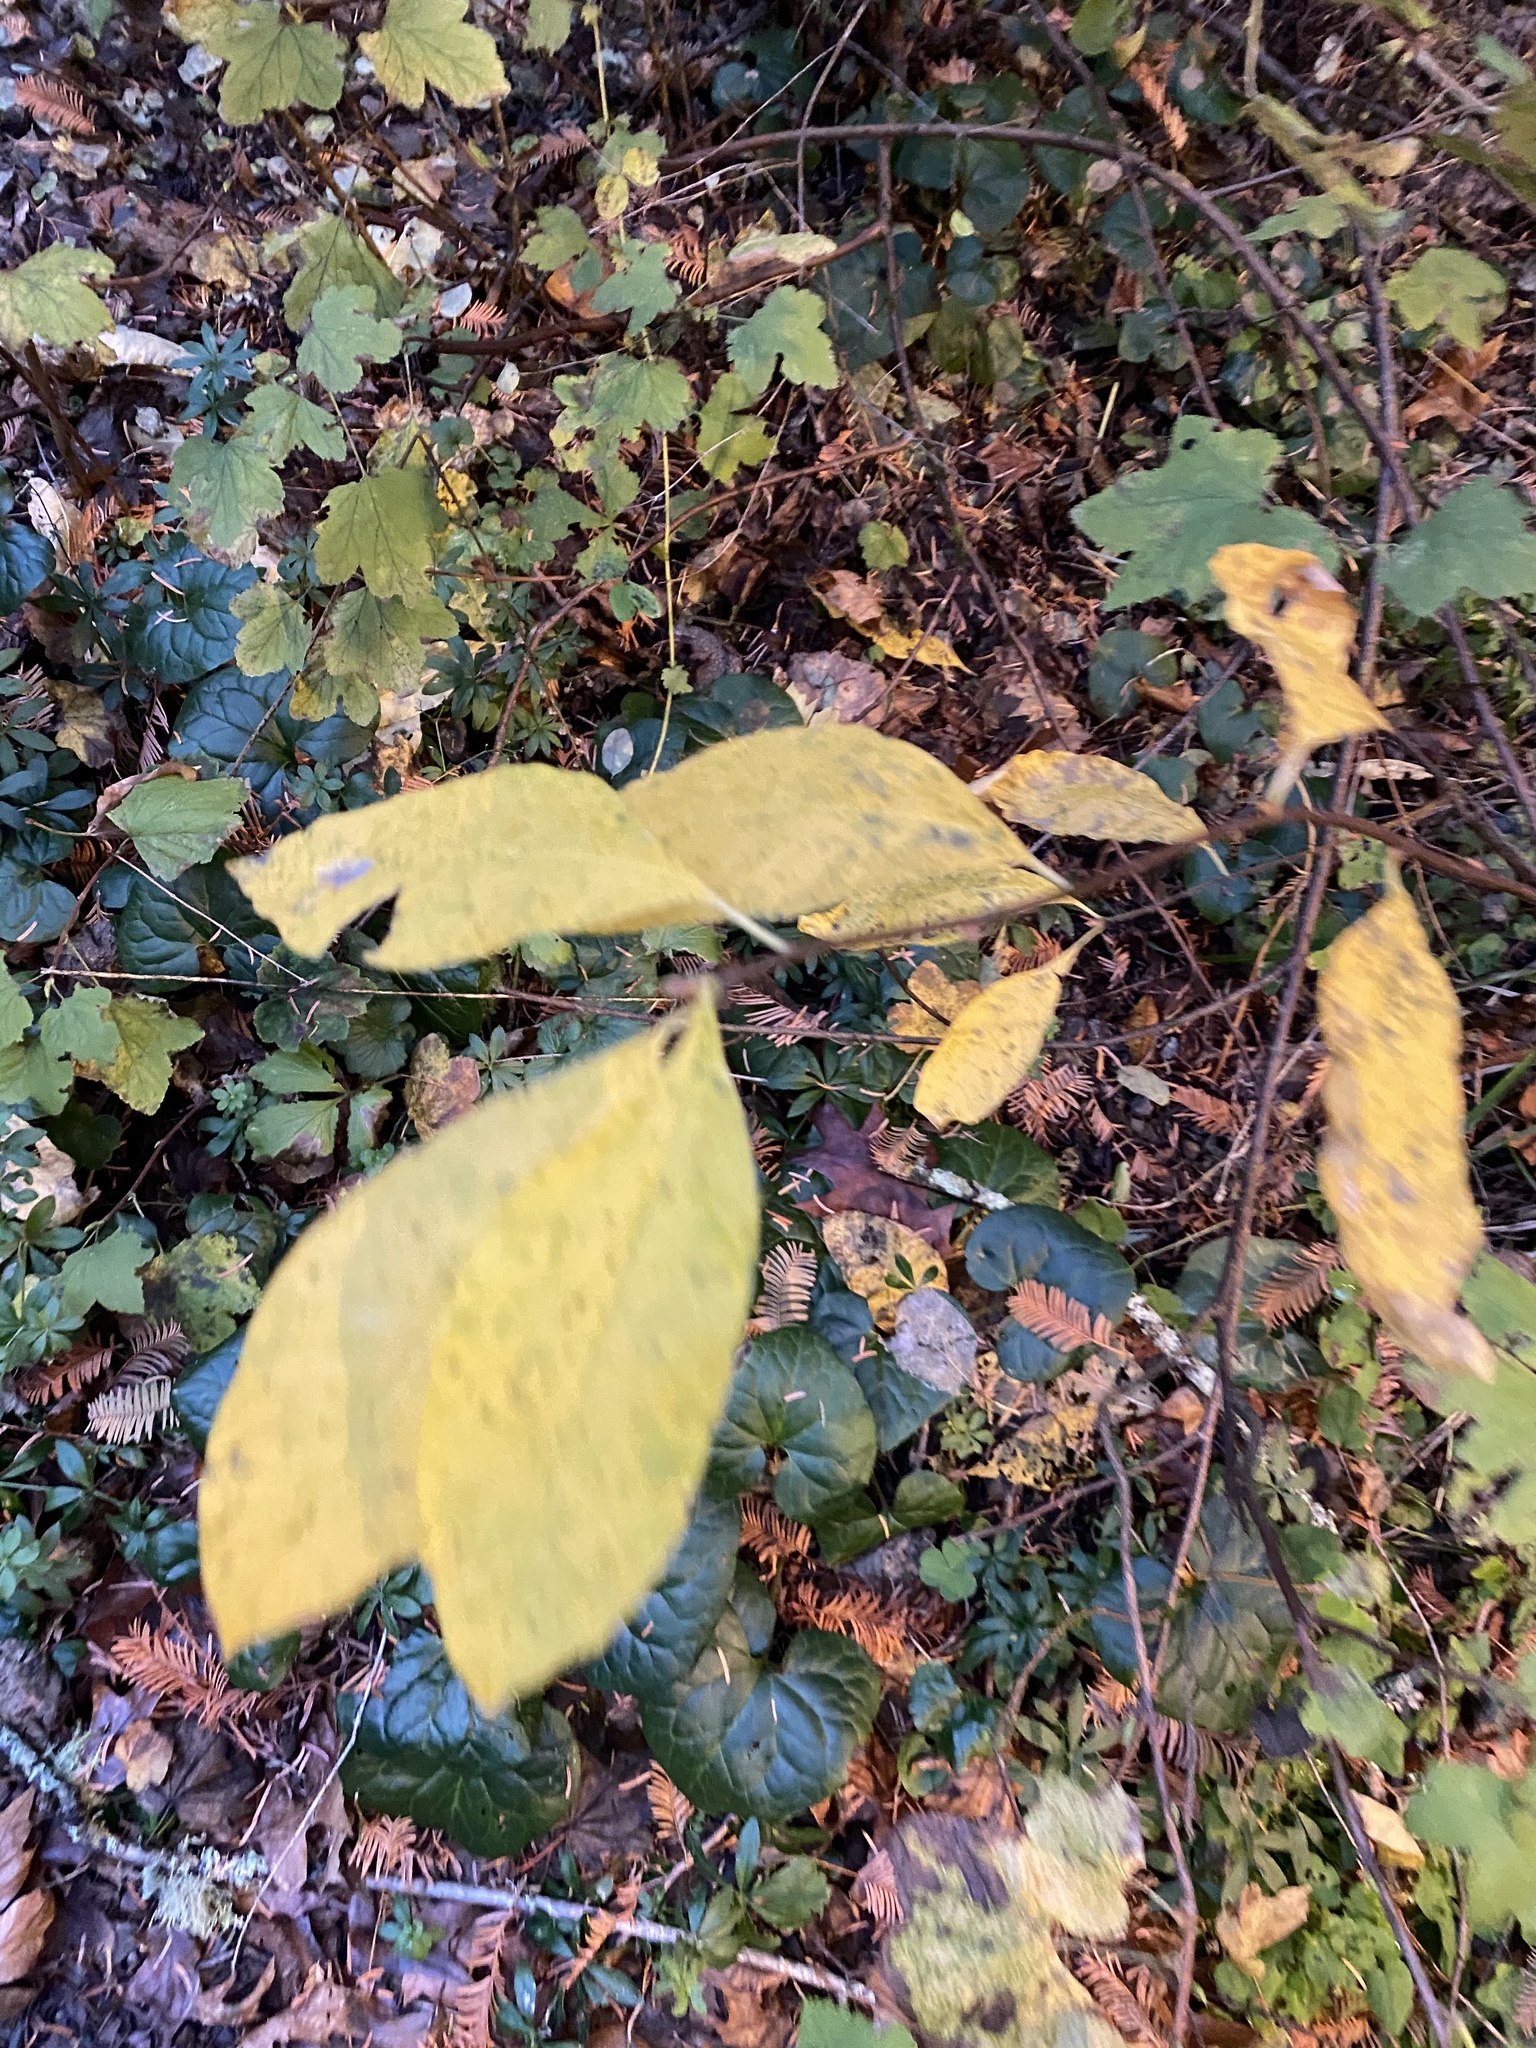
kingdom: Plantae
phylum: Tracheophyta
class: Magnoliopsida
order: Rosales
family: Rosaceae
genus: Oemleria
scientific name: Oemleria cerasiformis
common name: Osoberry
